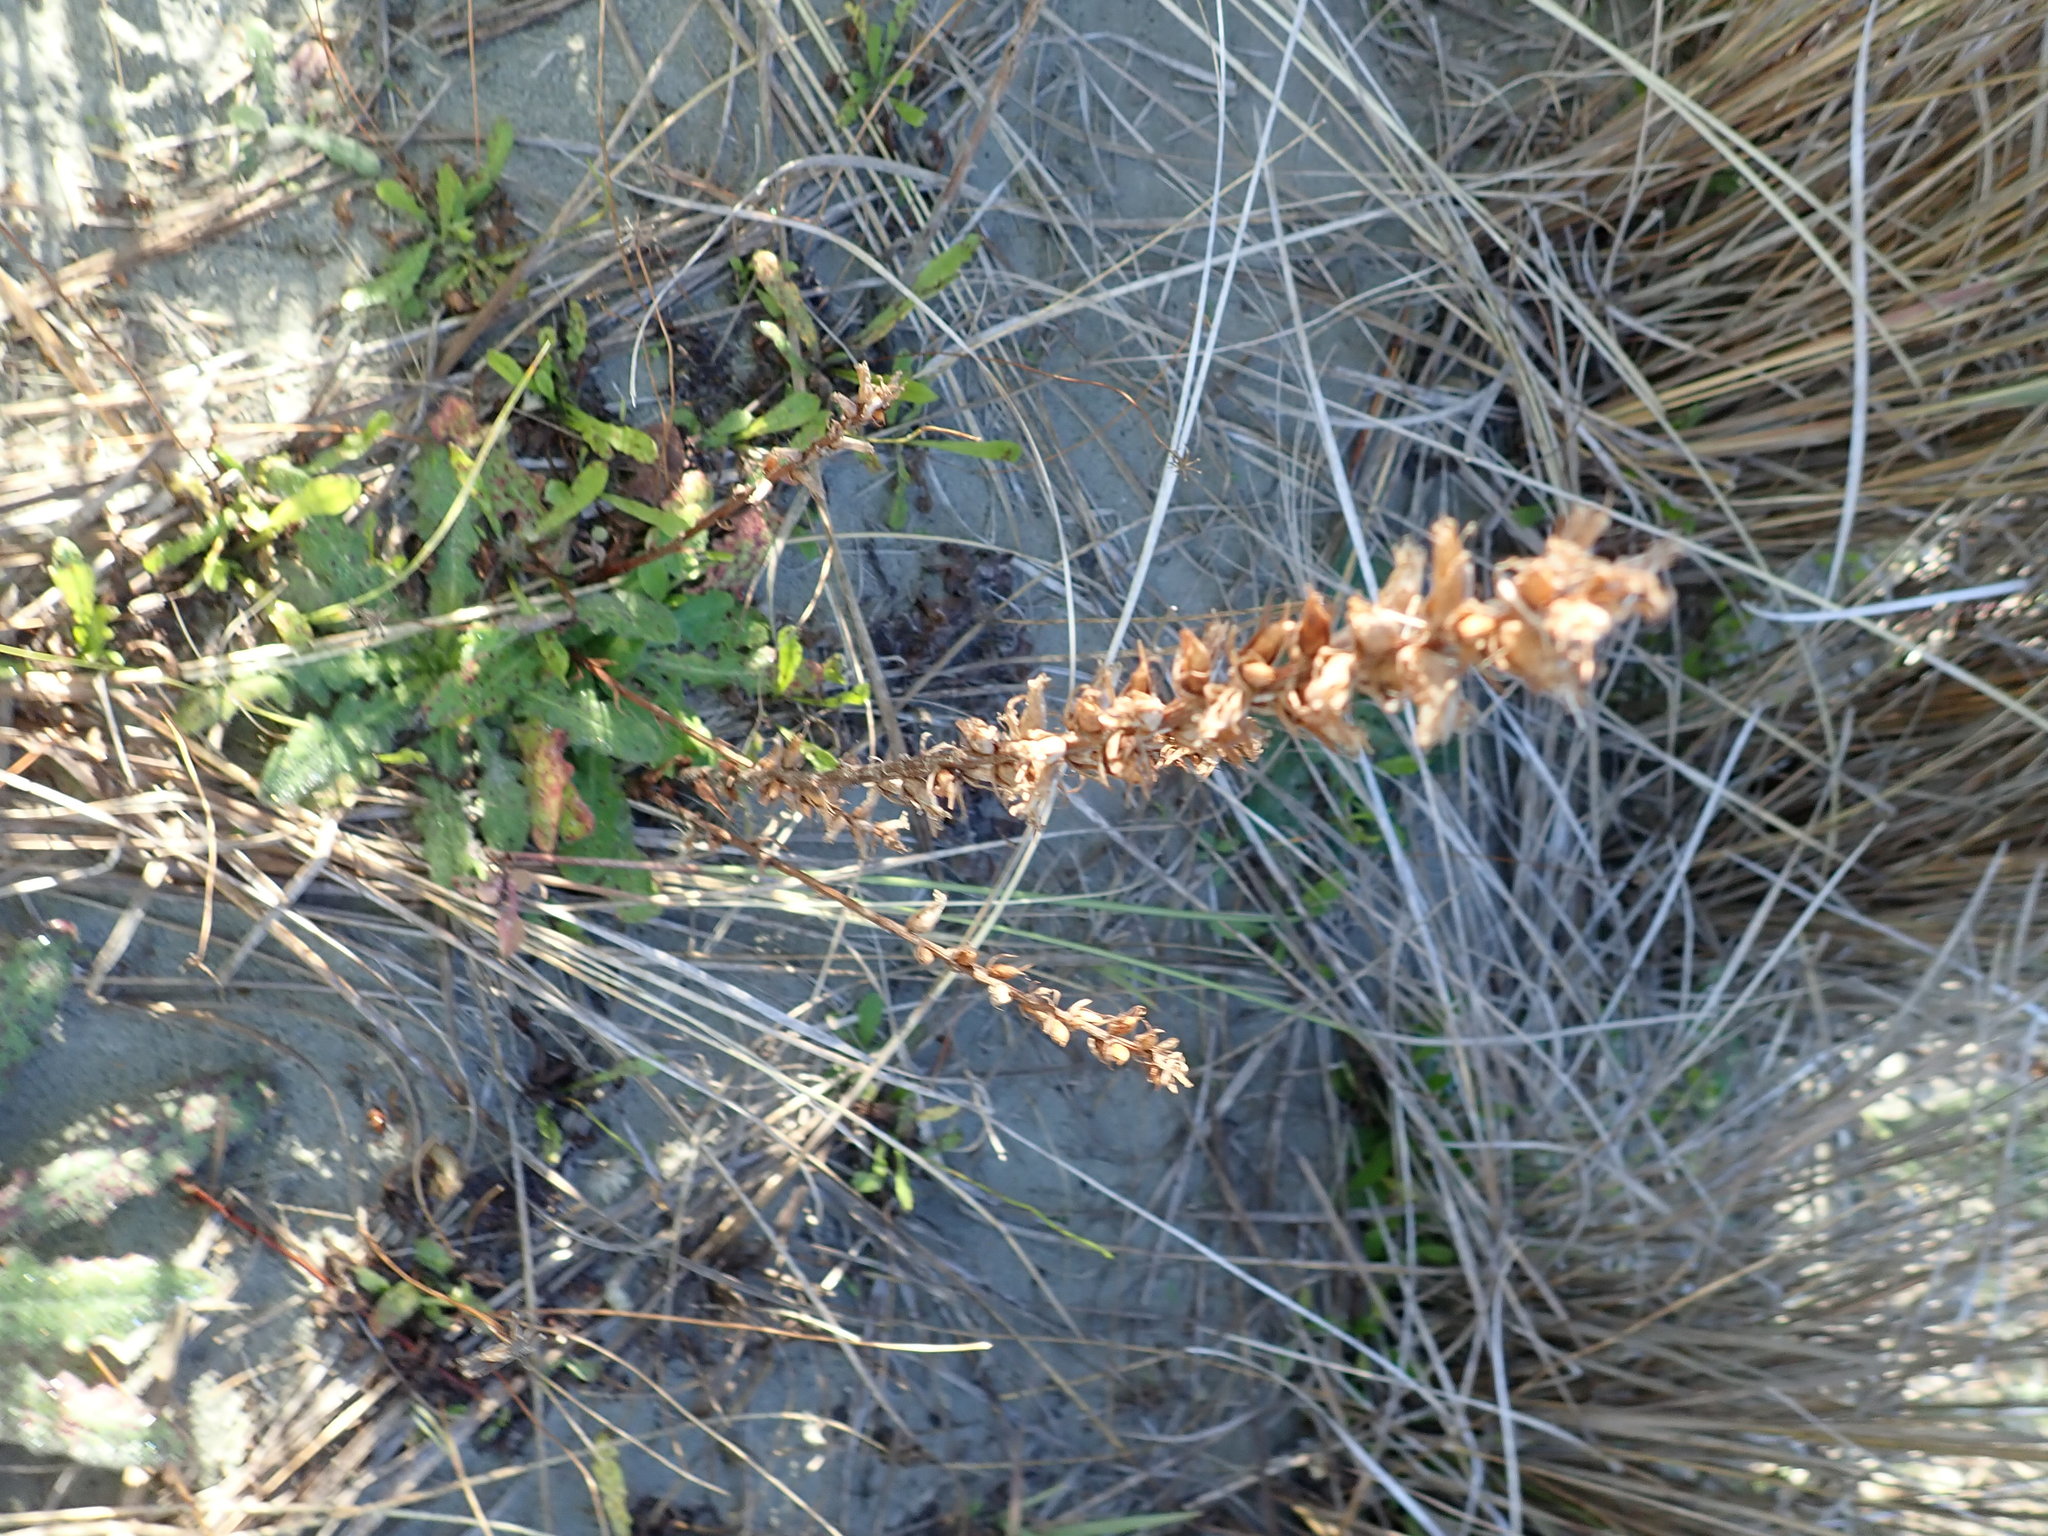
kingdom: Plantae
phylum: Tracheophyta
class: Magnoliopsida
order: Lamiales
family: Orobanchaceae
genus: Orobanche
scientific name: Orobanche minor
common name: Common broomrape
